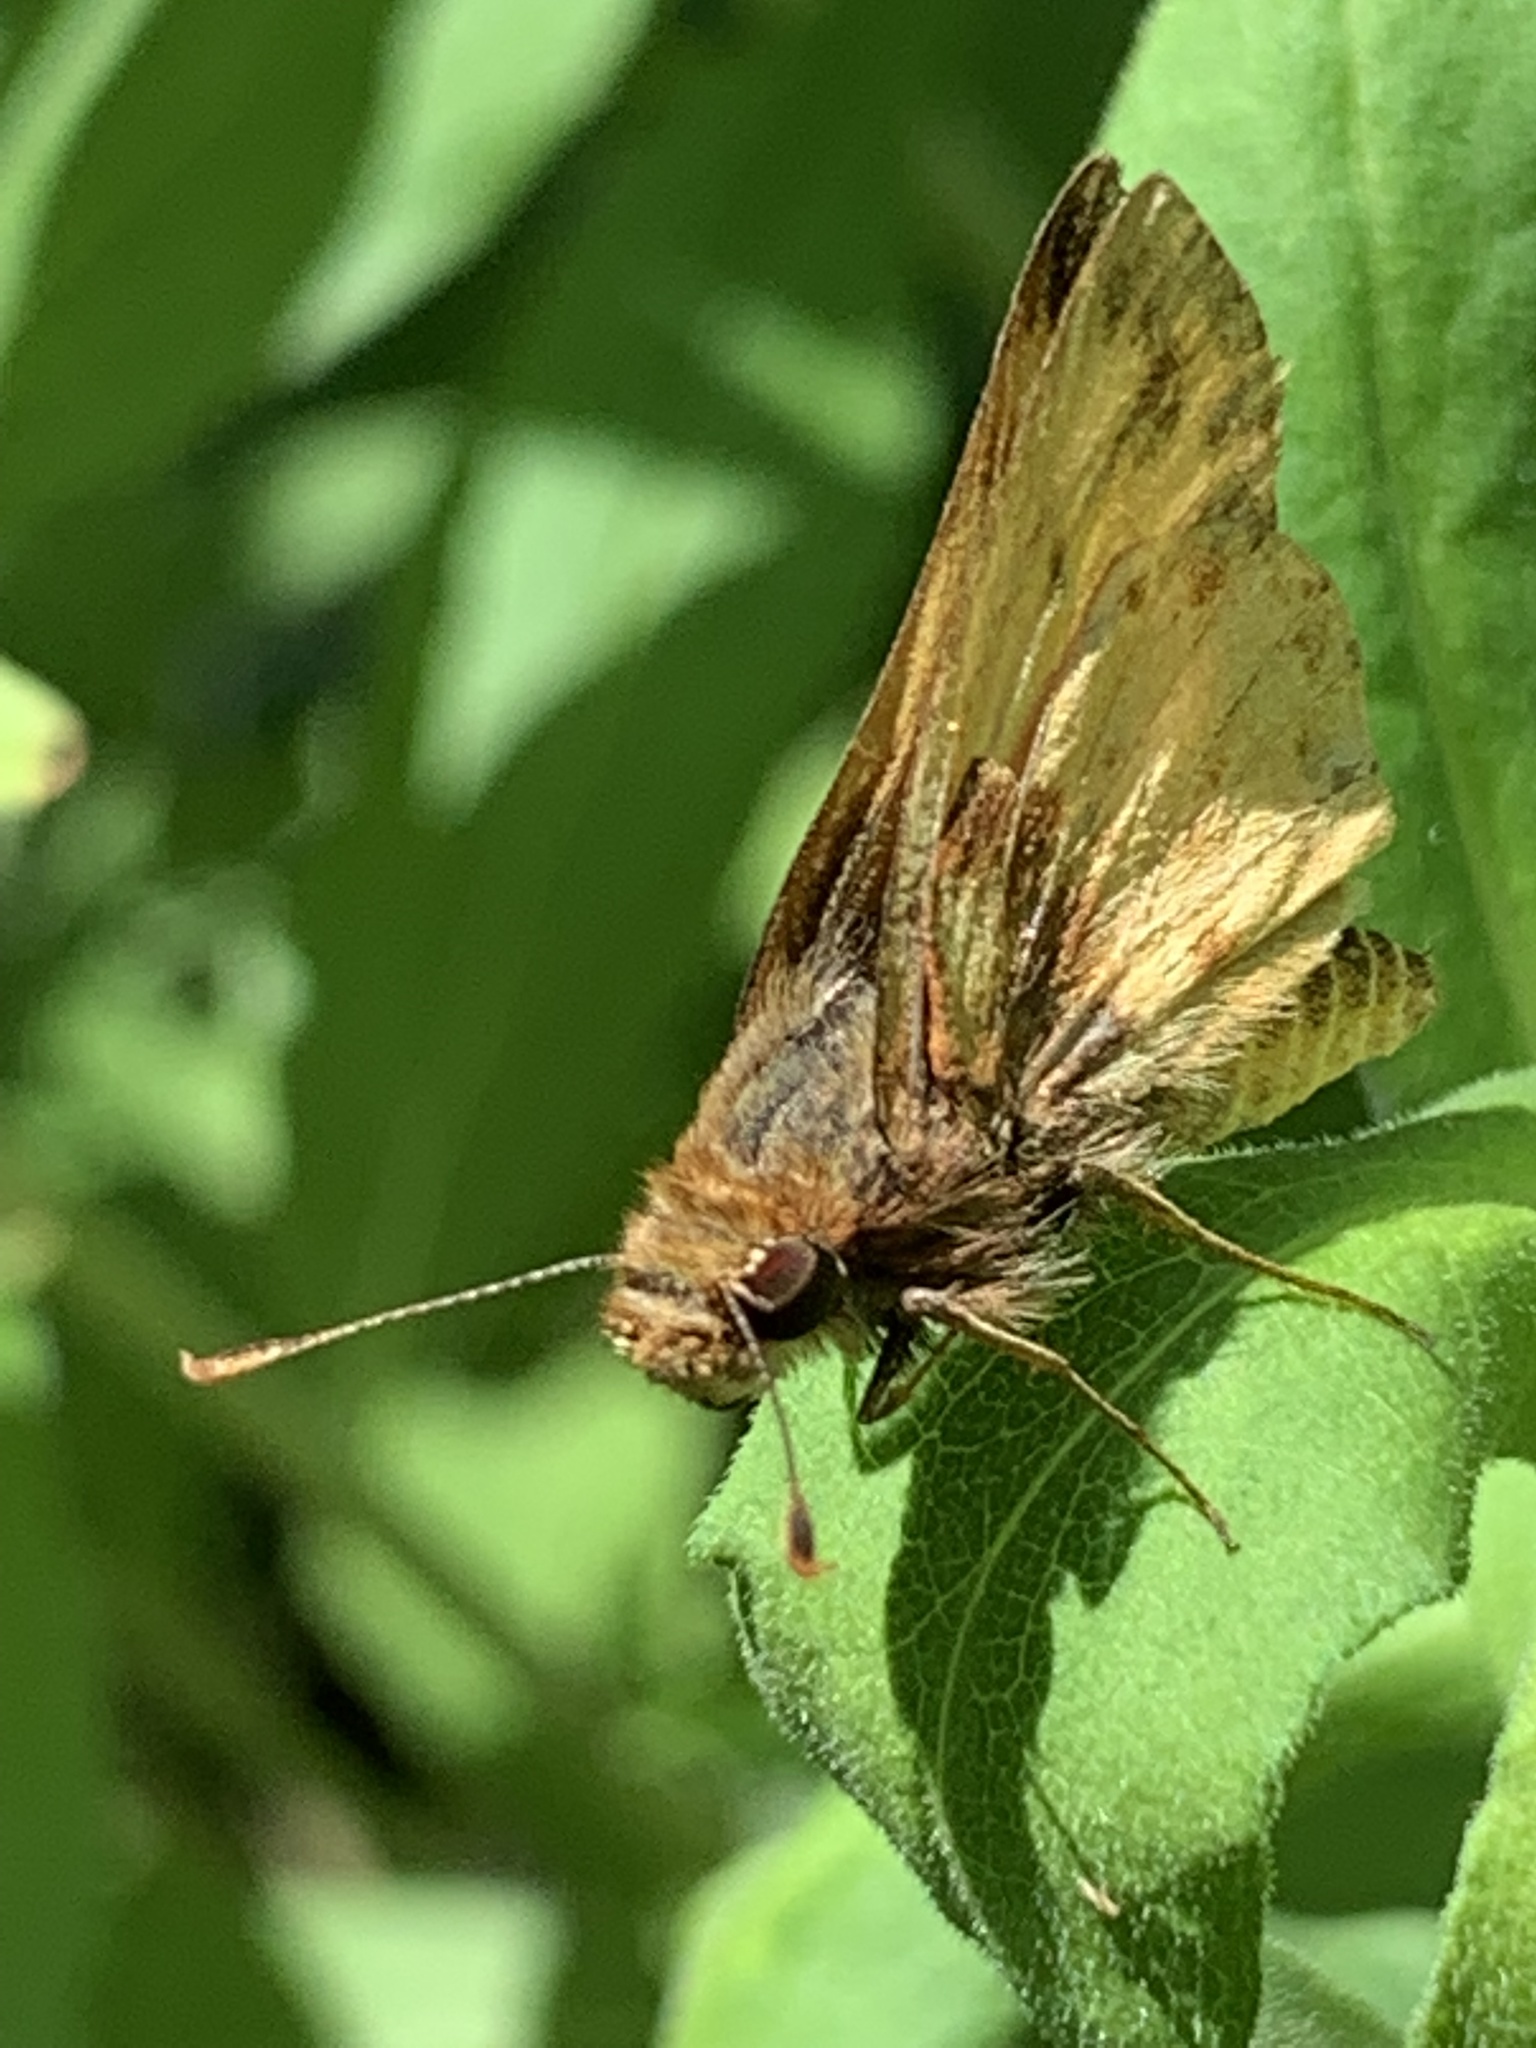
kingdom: Animalia
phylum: Arthropoda
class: Insecta
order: Lepidoptera
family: Hesperiidae
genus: Lon
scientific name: Lon zabulon
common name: Zabulon skipper
